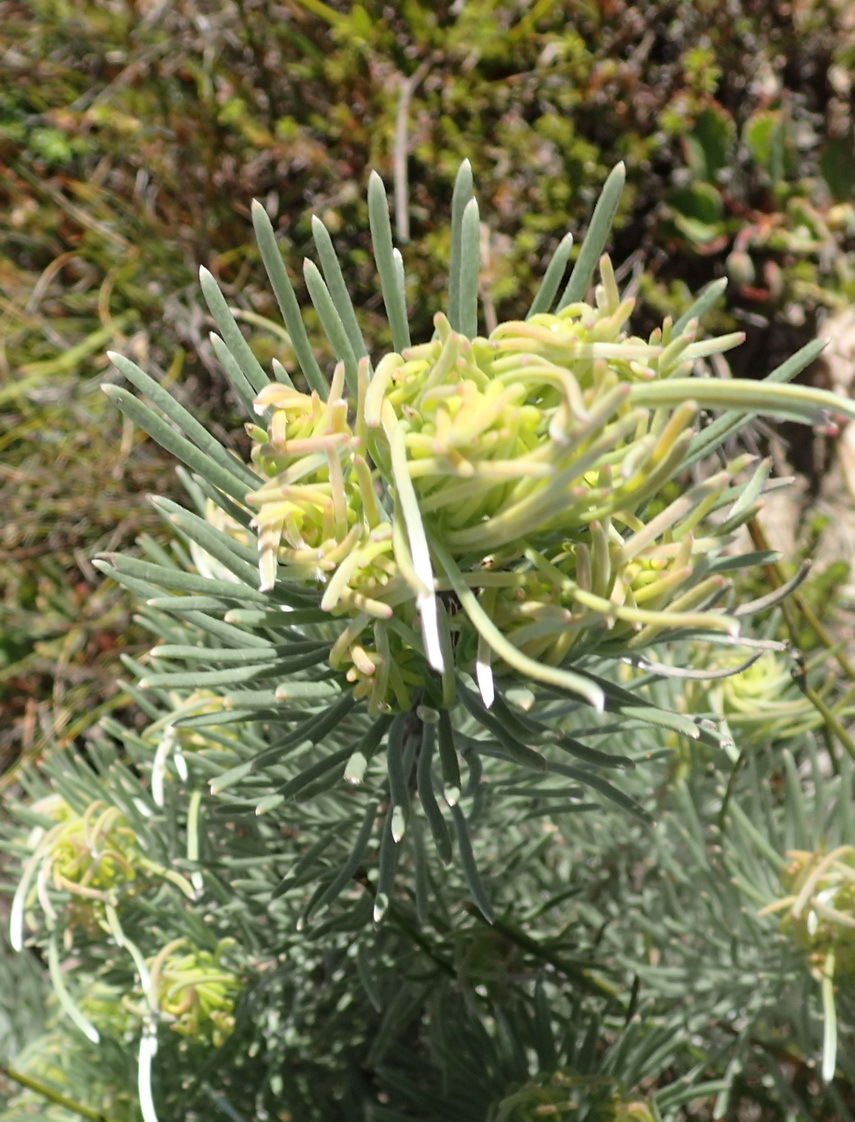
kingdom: Plantae
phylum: Tracheophyta
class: Magnoliopsida
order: Proteales
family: Proteaceae
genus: Leucadendron
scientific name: Leucadendron album
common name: Linear-leaf conebush
